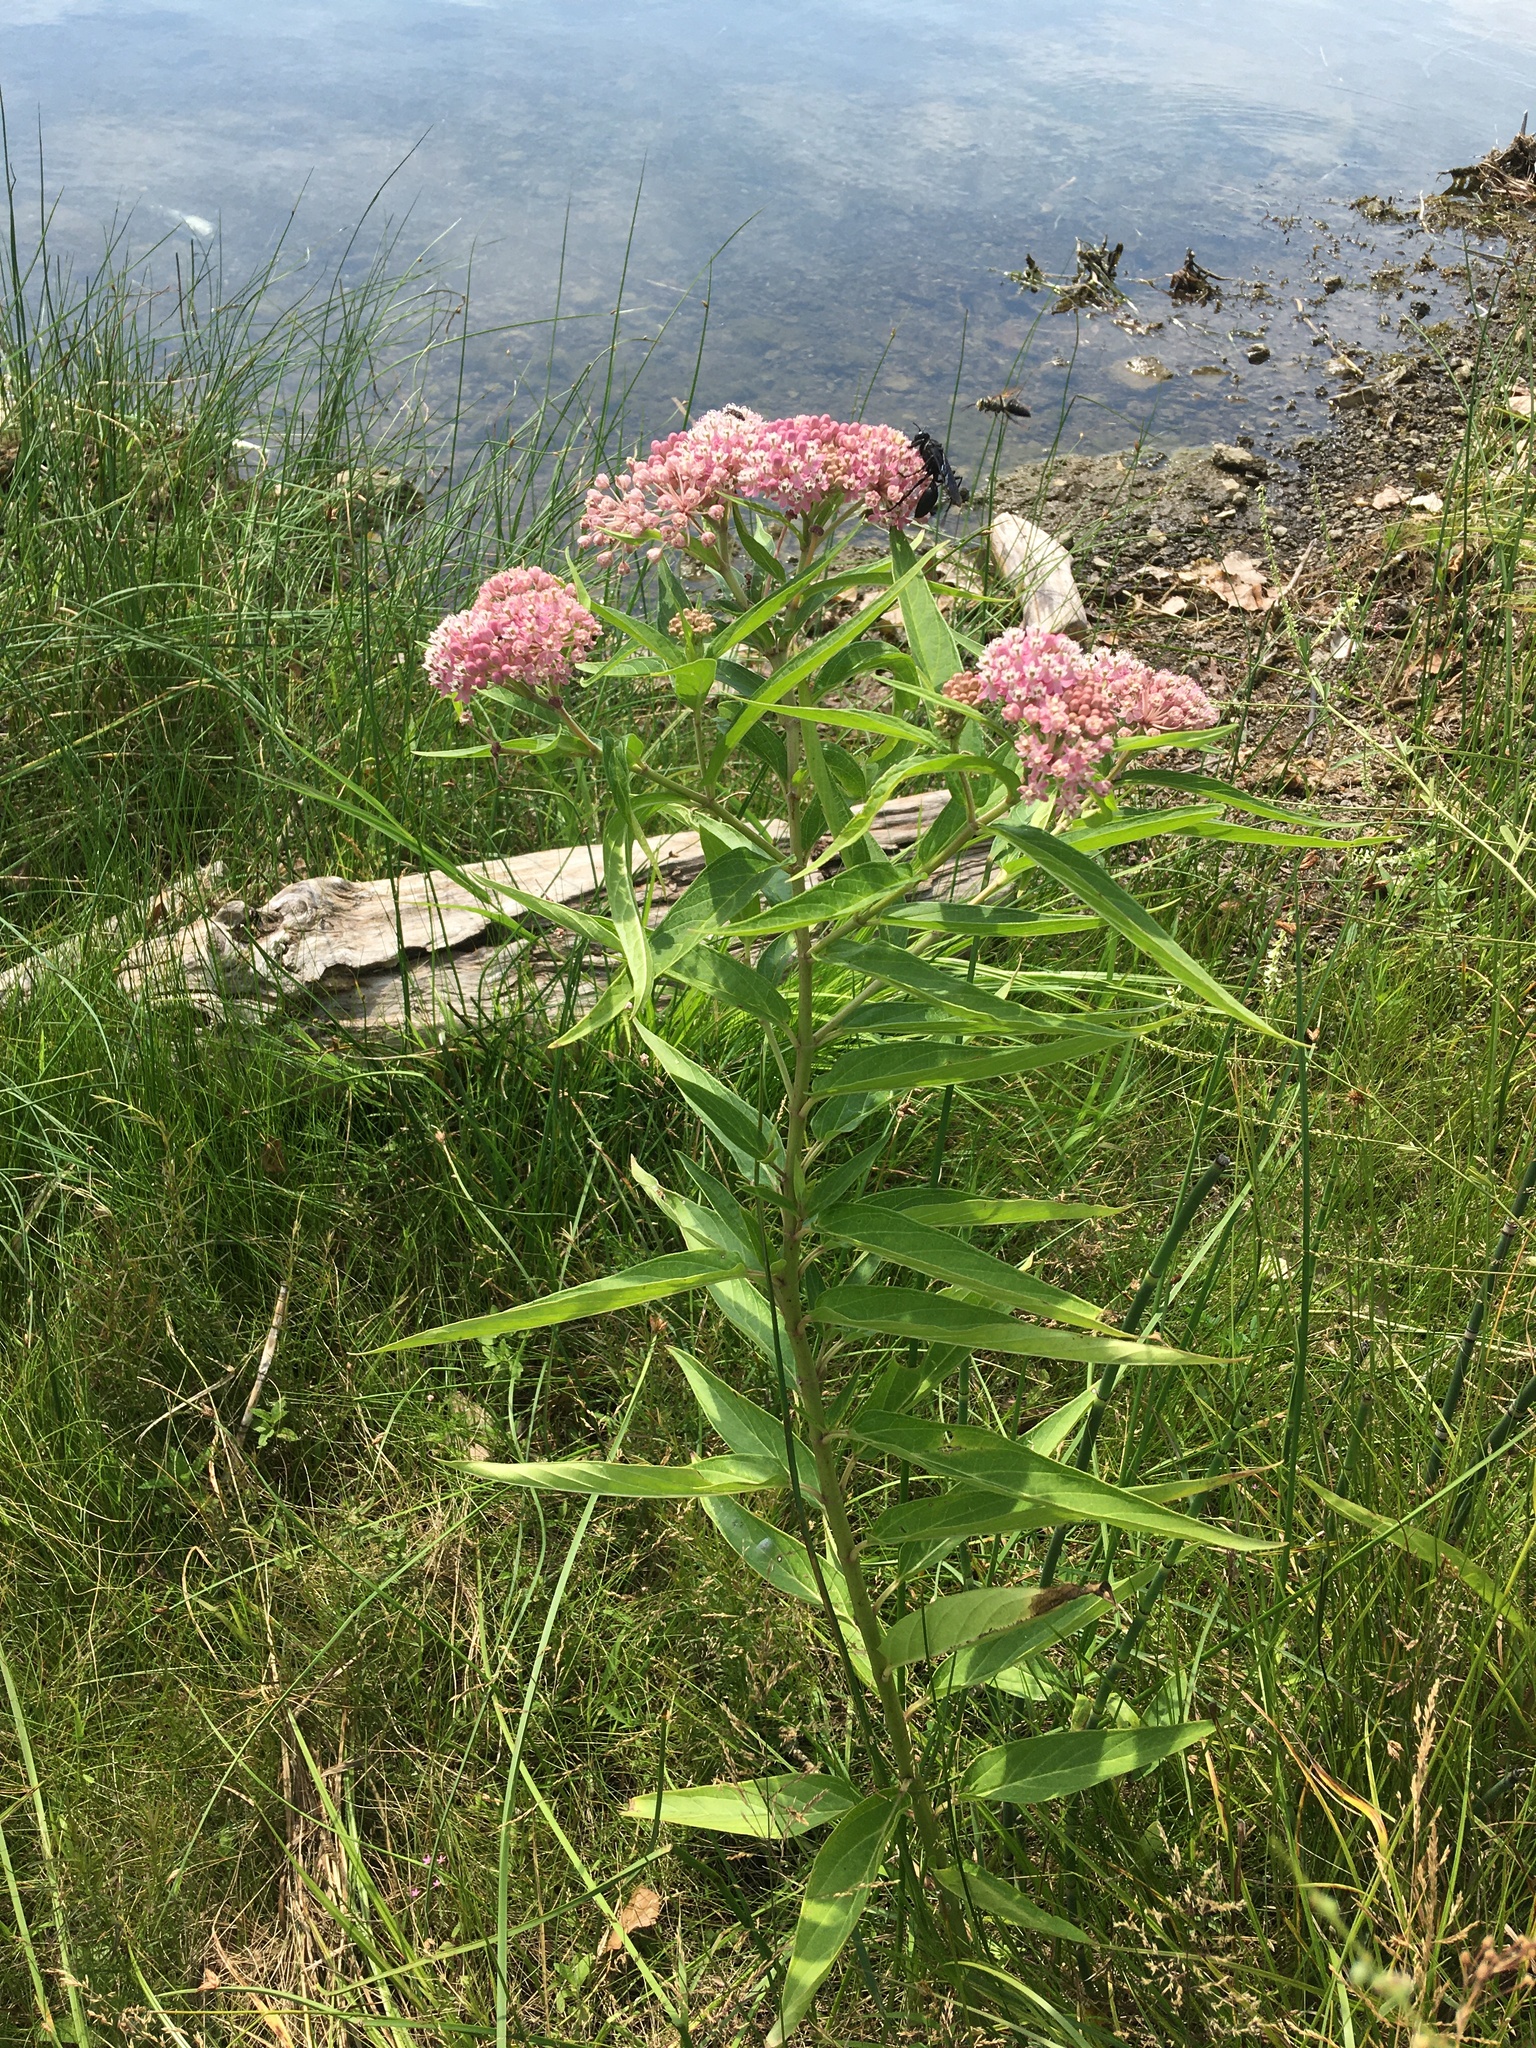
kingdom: Plantae
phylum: Tracheophyta
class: Magnoliopsida
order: Gentianales
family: Apocynaceae
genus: Asclepias
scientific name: Asclepias incarnata
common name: Swamp milkweed
